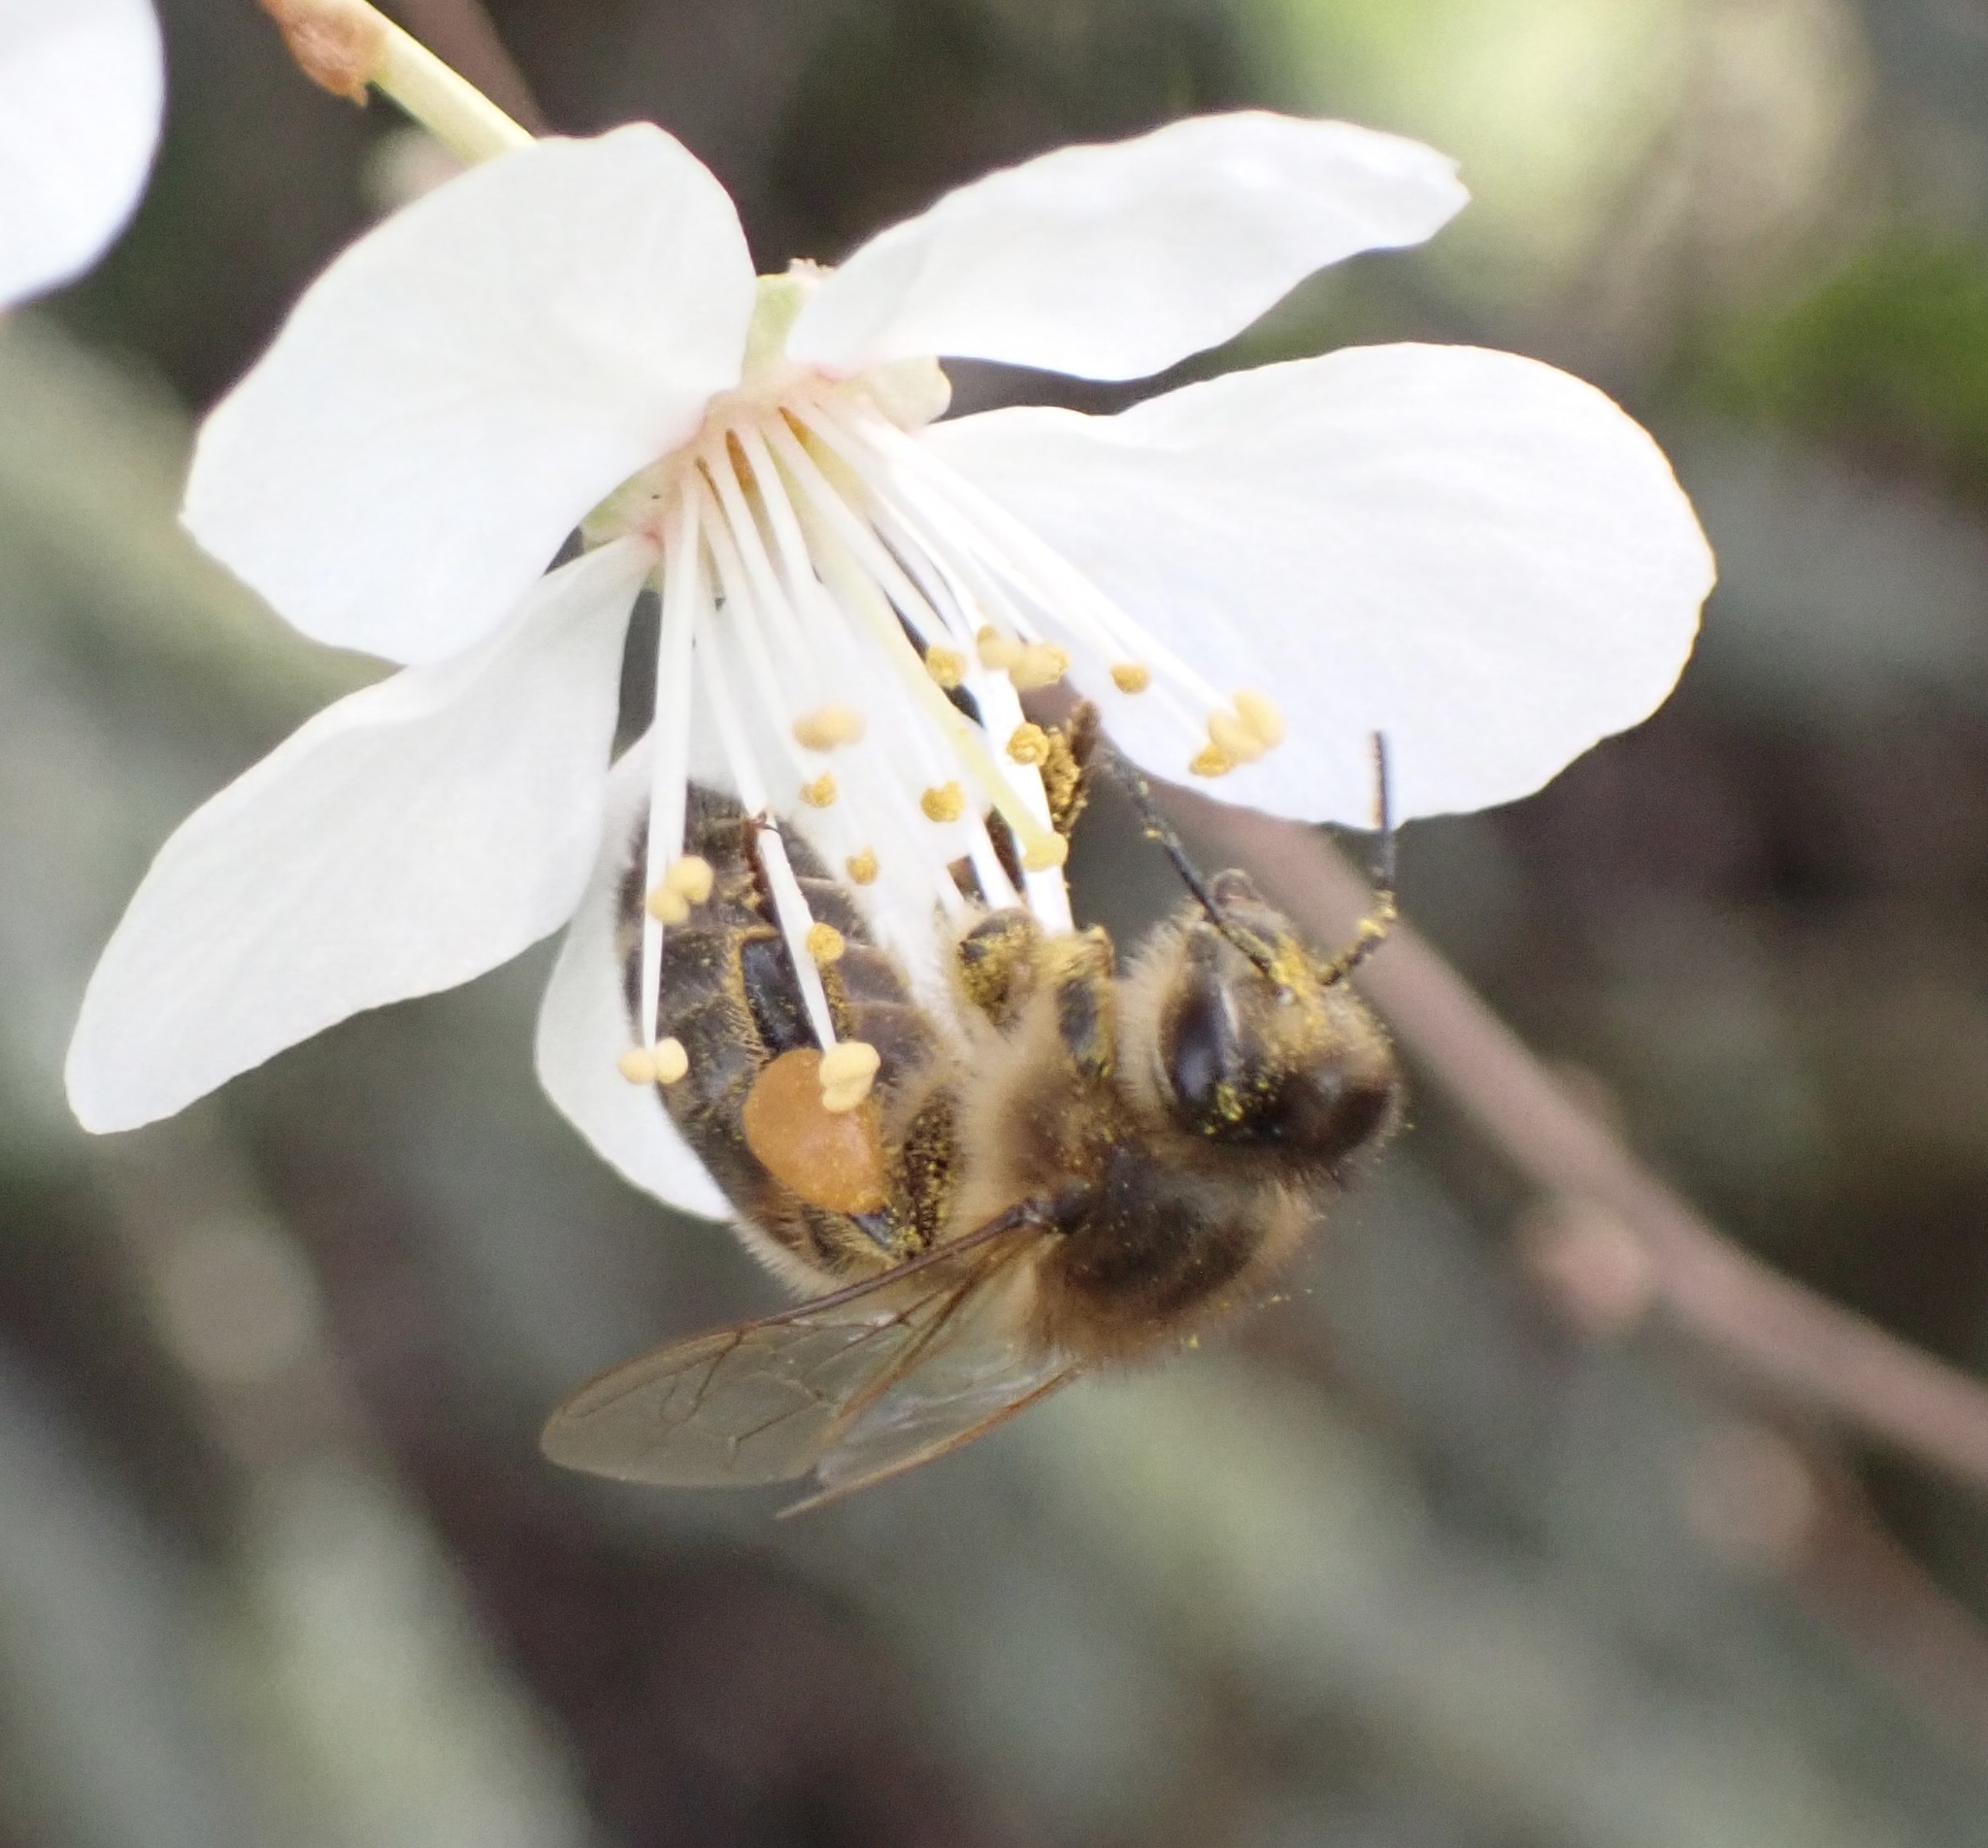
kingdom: Animalia
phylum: Arthropoda
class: Insecta
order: Hymenoptera
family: Apidae
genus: Apis
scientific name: Apis mellifera
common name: Honey bee
